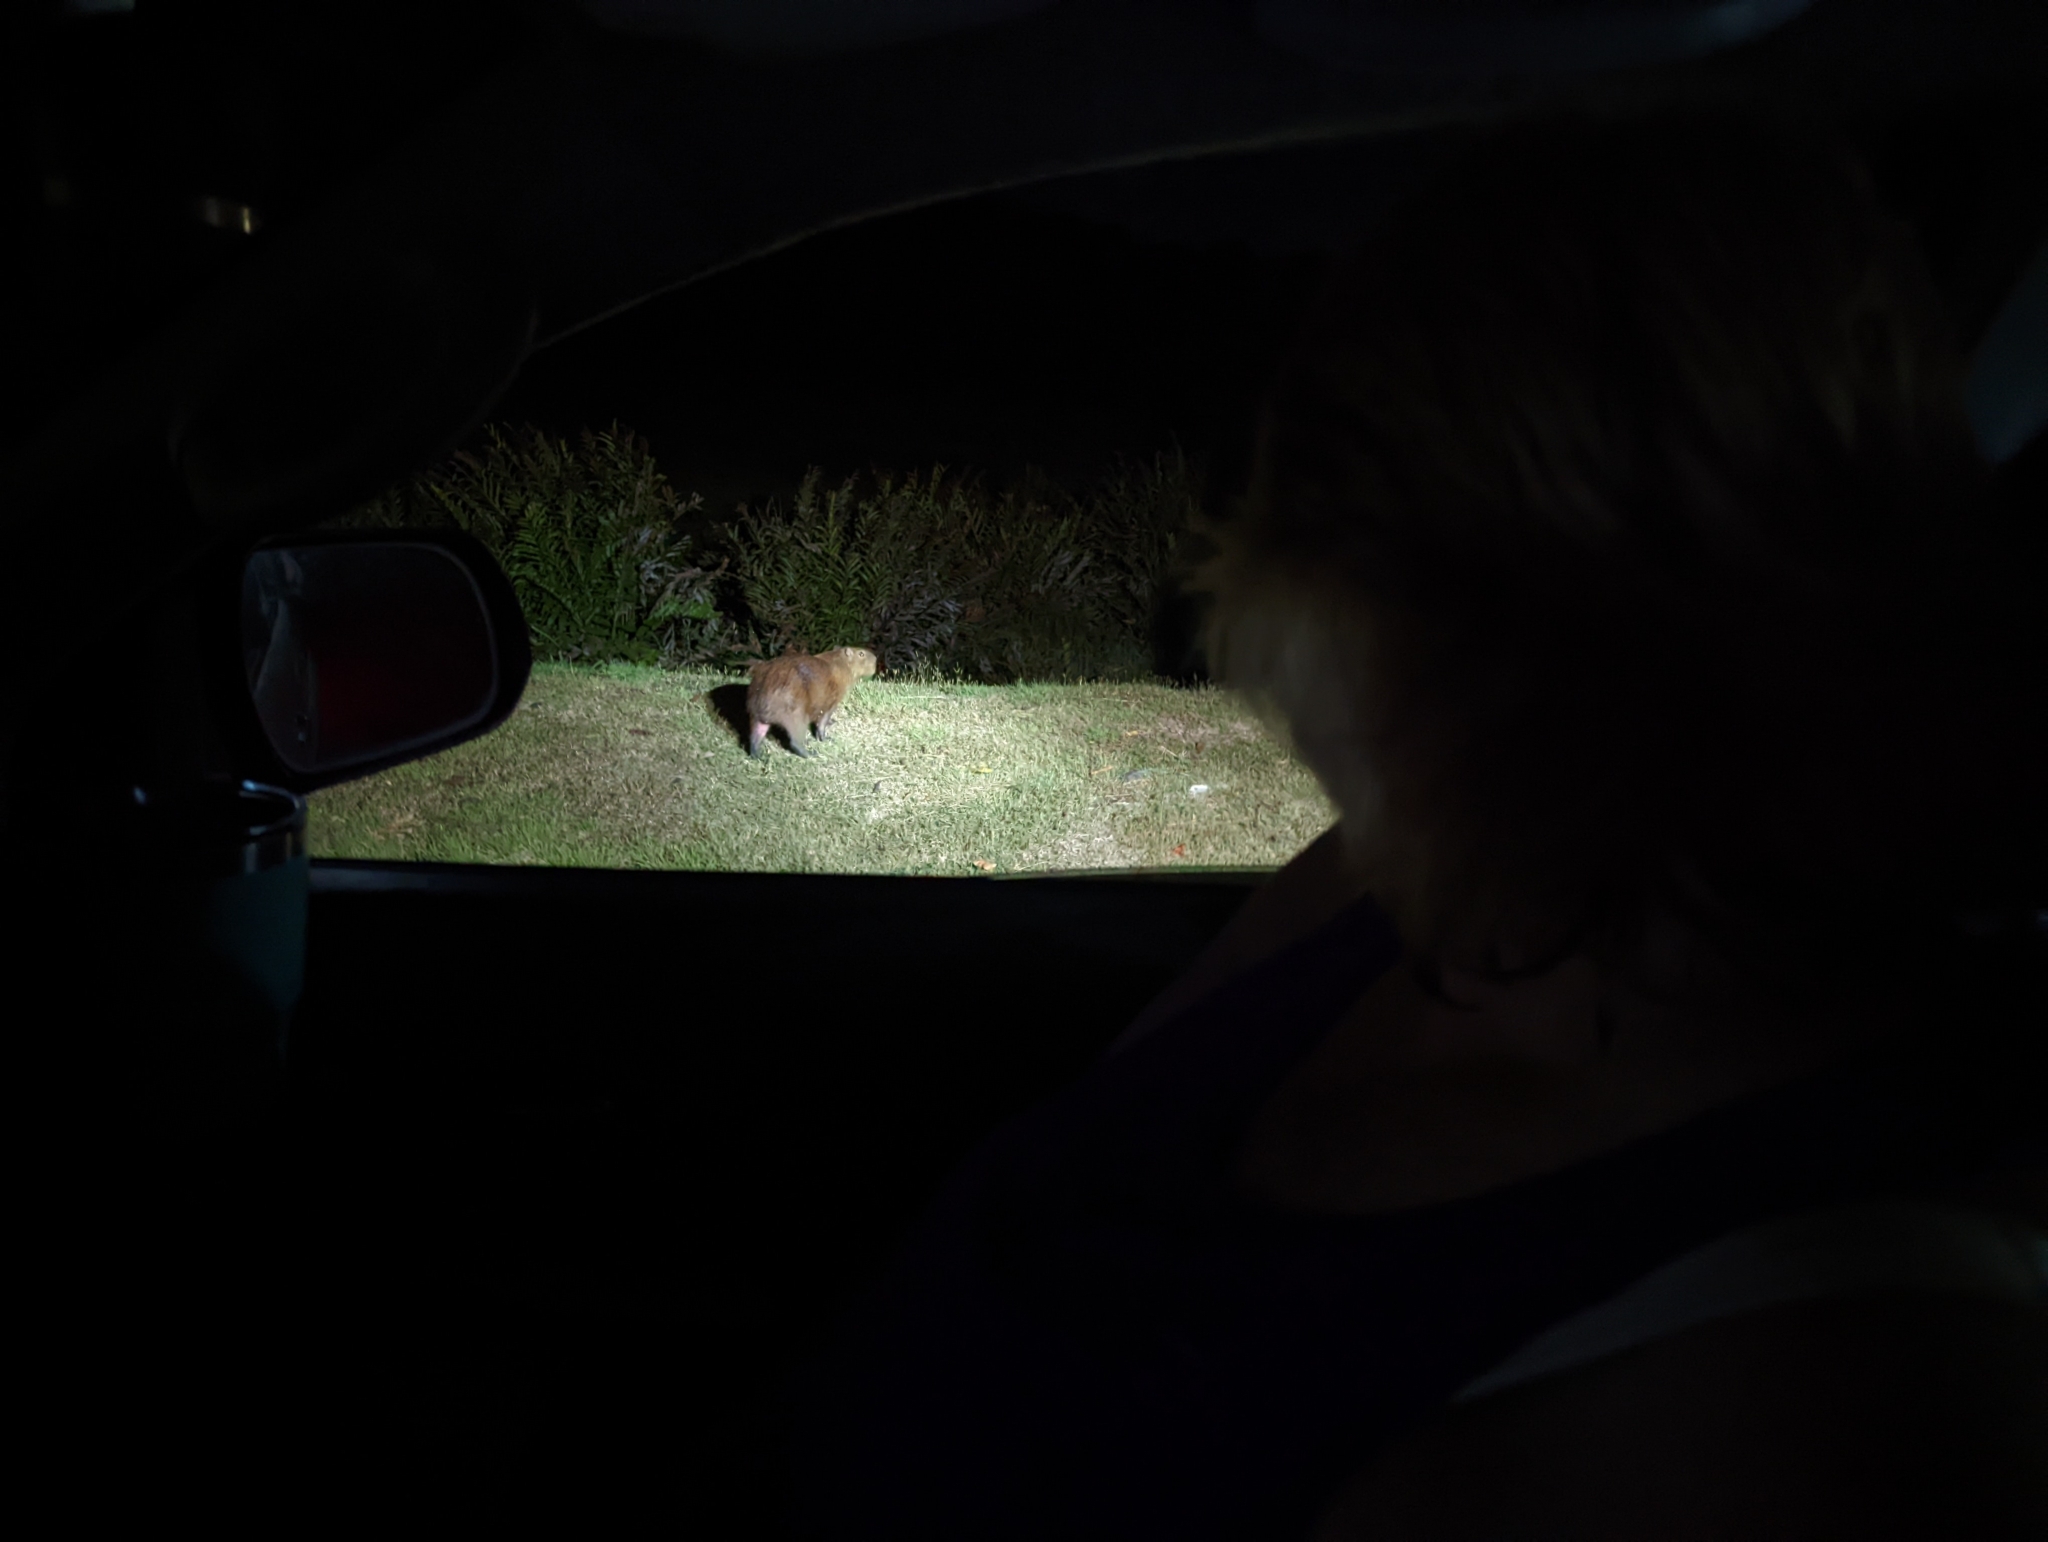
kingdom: Animalia
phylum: Chordata
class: Mammalia
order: Rodentia
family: Caviidae
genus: Hydrochoerus
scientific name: Hydrochoerus isthmius
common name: Lesser capybara
